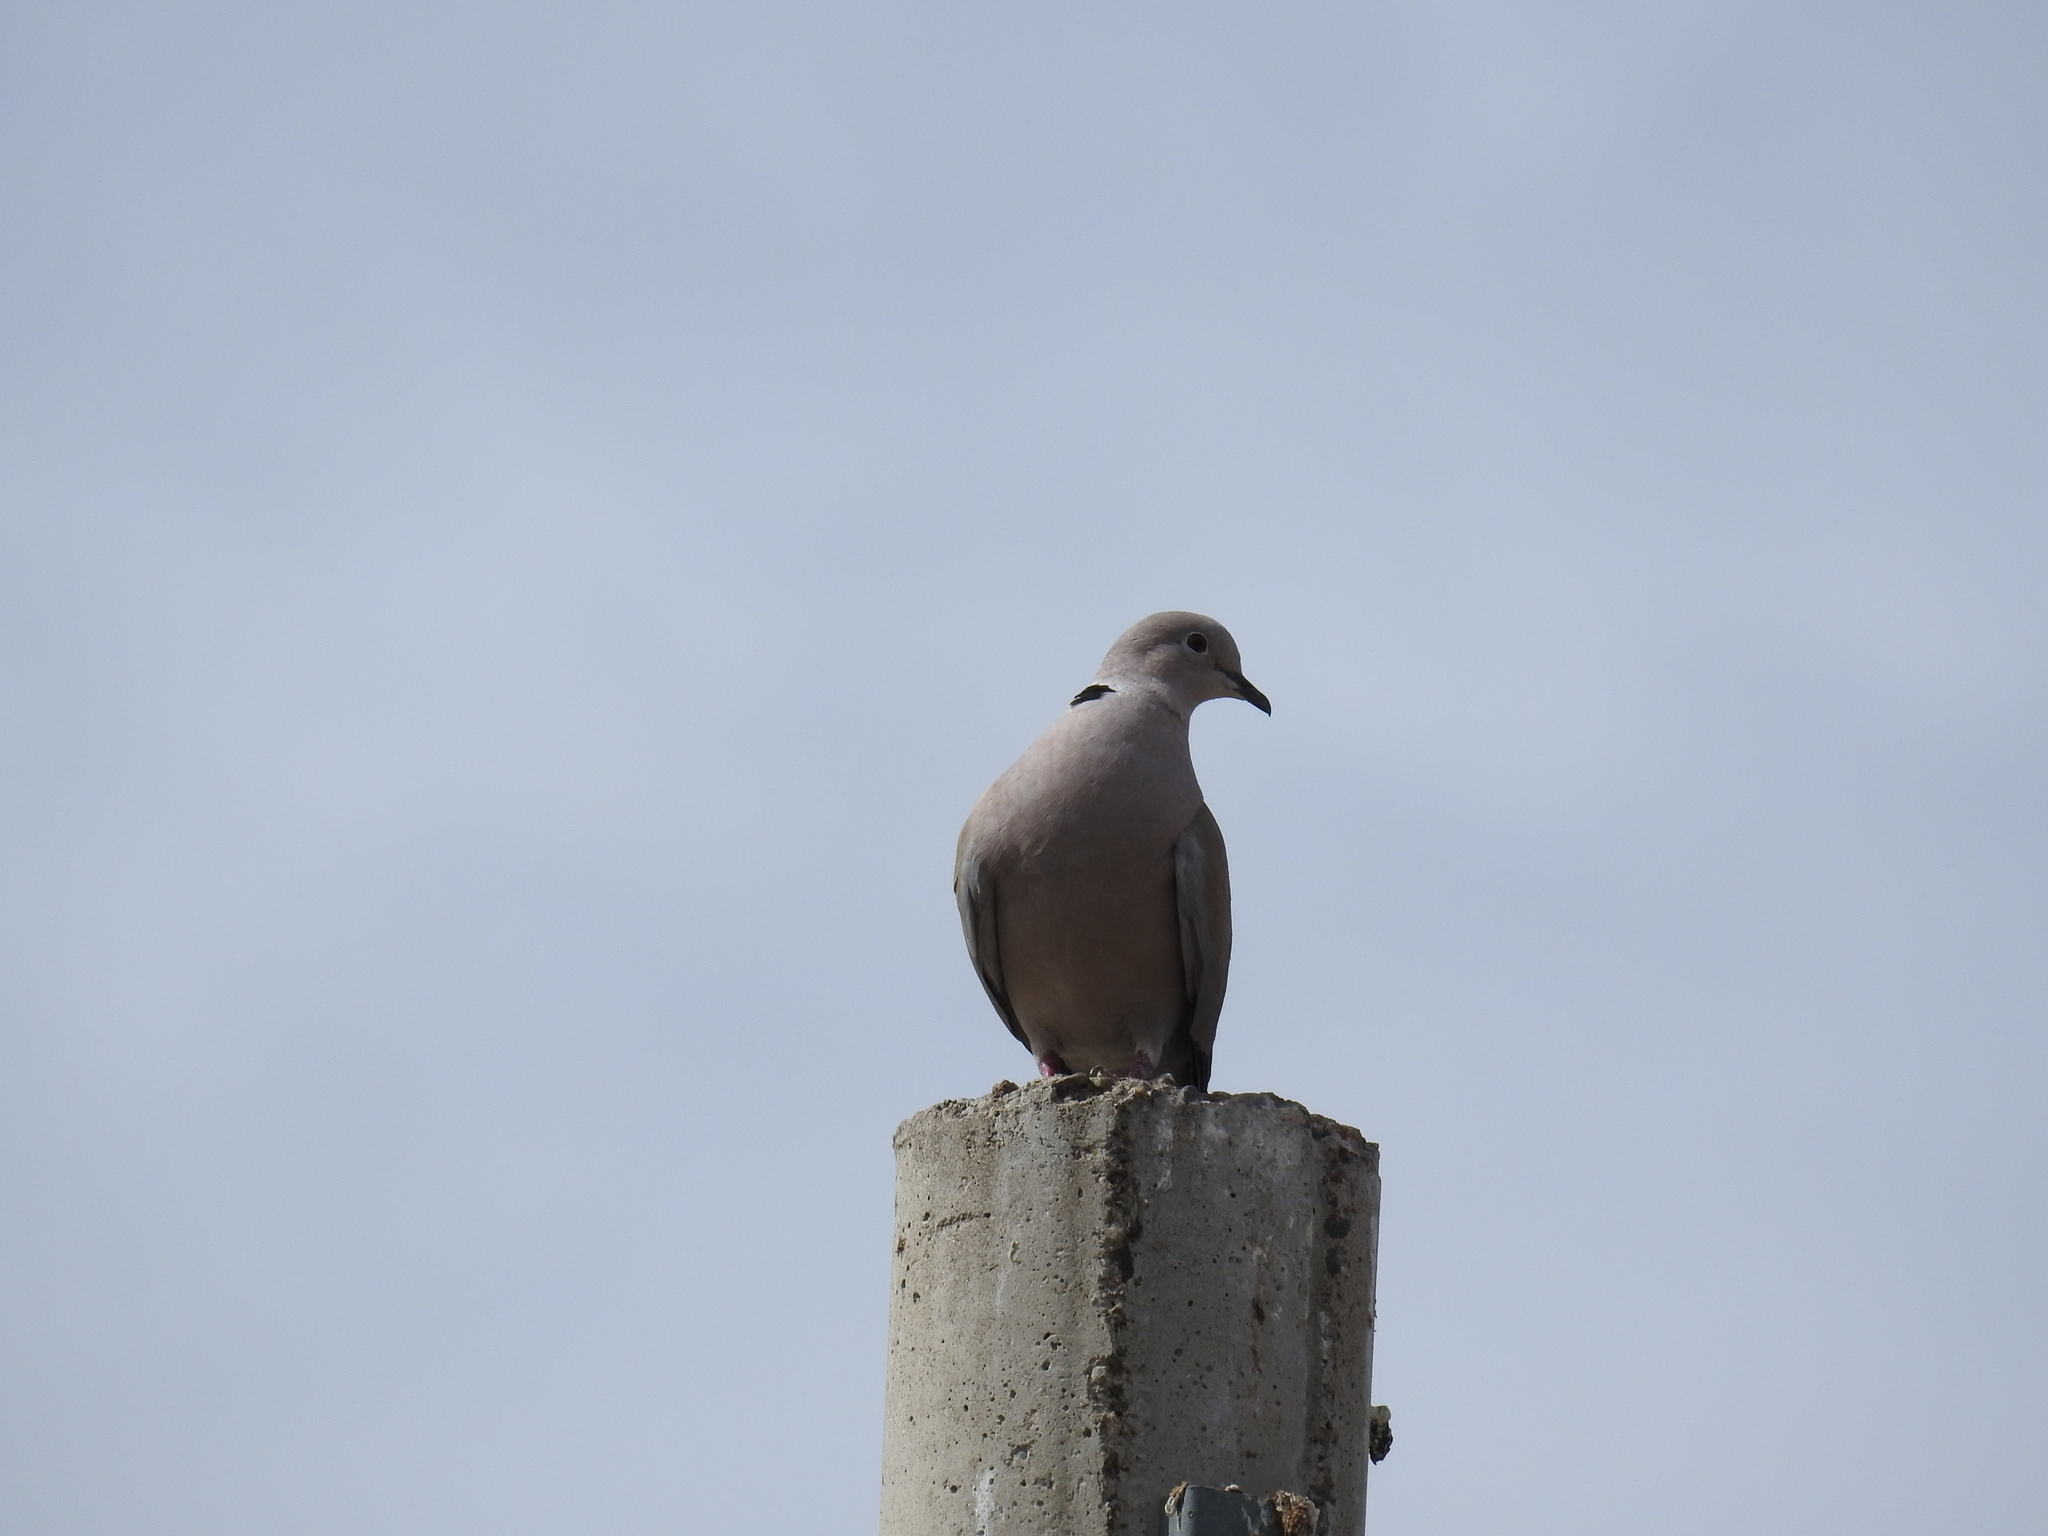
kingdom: Animalia
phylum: Chordata
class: Aves
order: Columbiformes
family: Columbidae
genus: Streptopelia
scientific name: Streptopelia decaocto
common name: Eurasian collared dove
